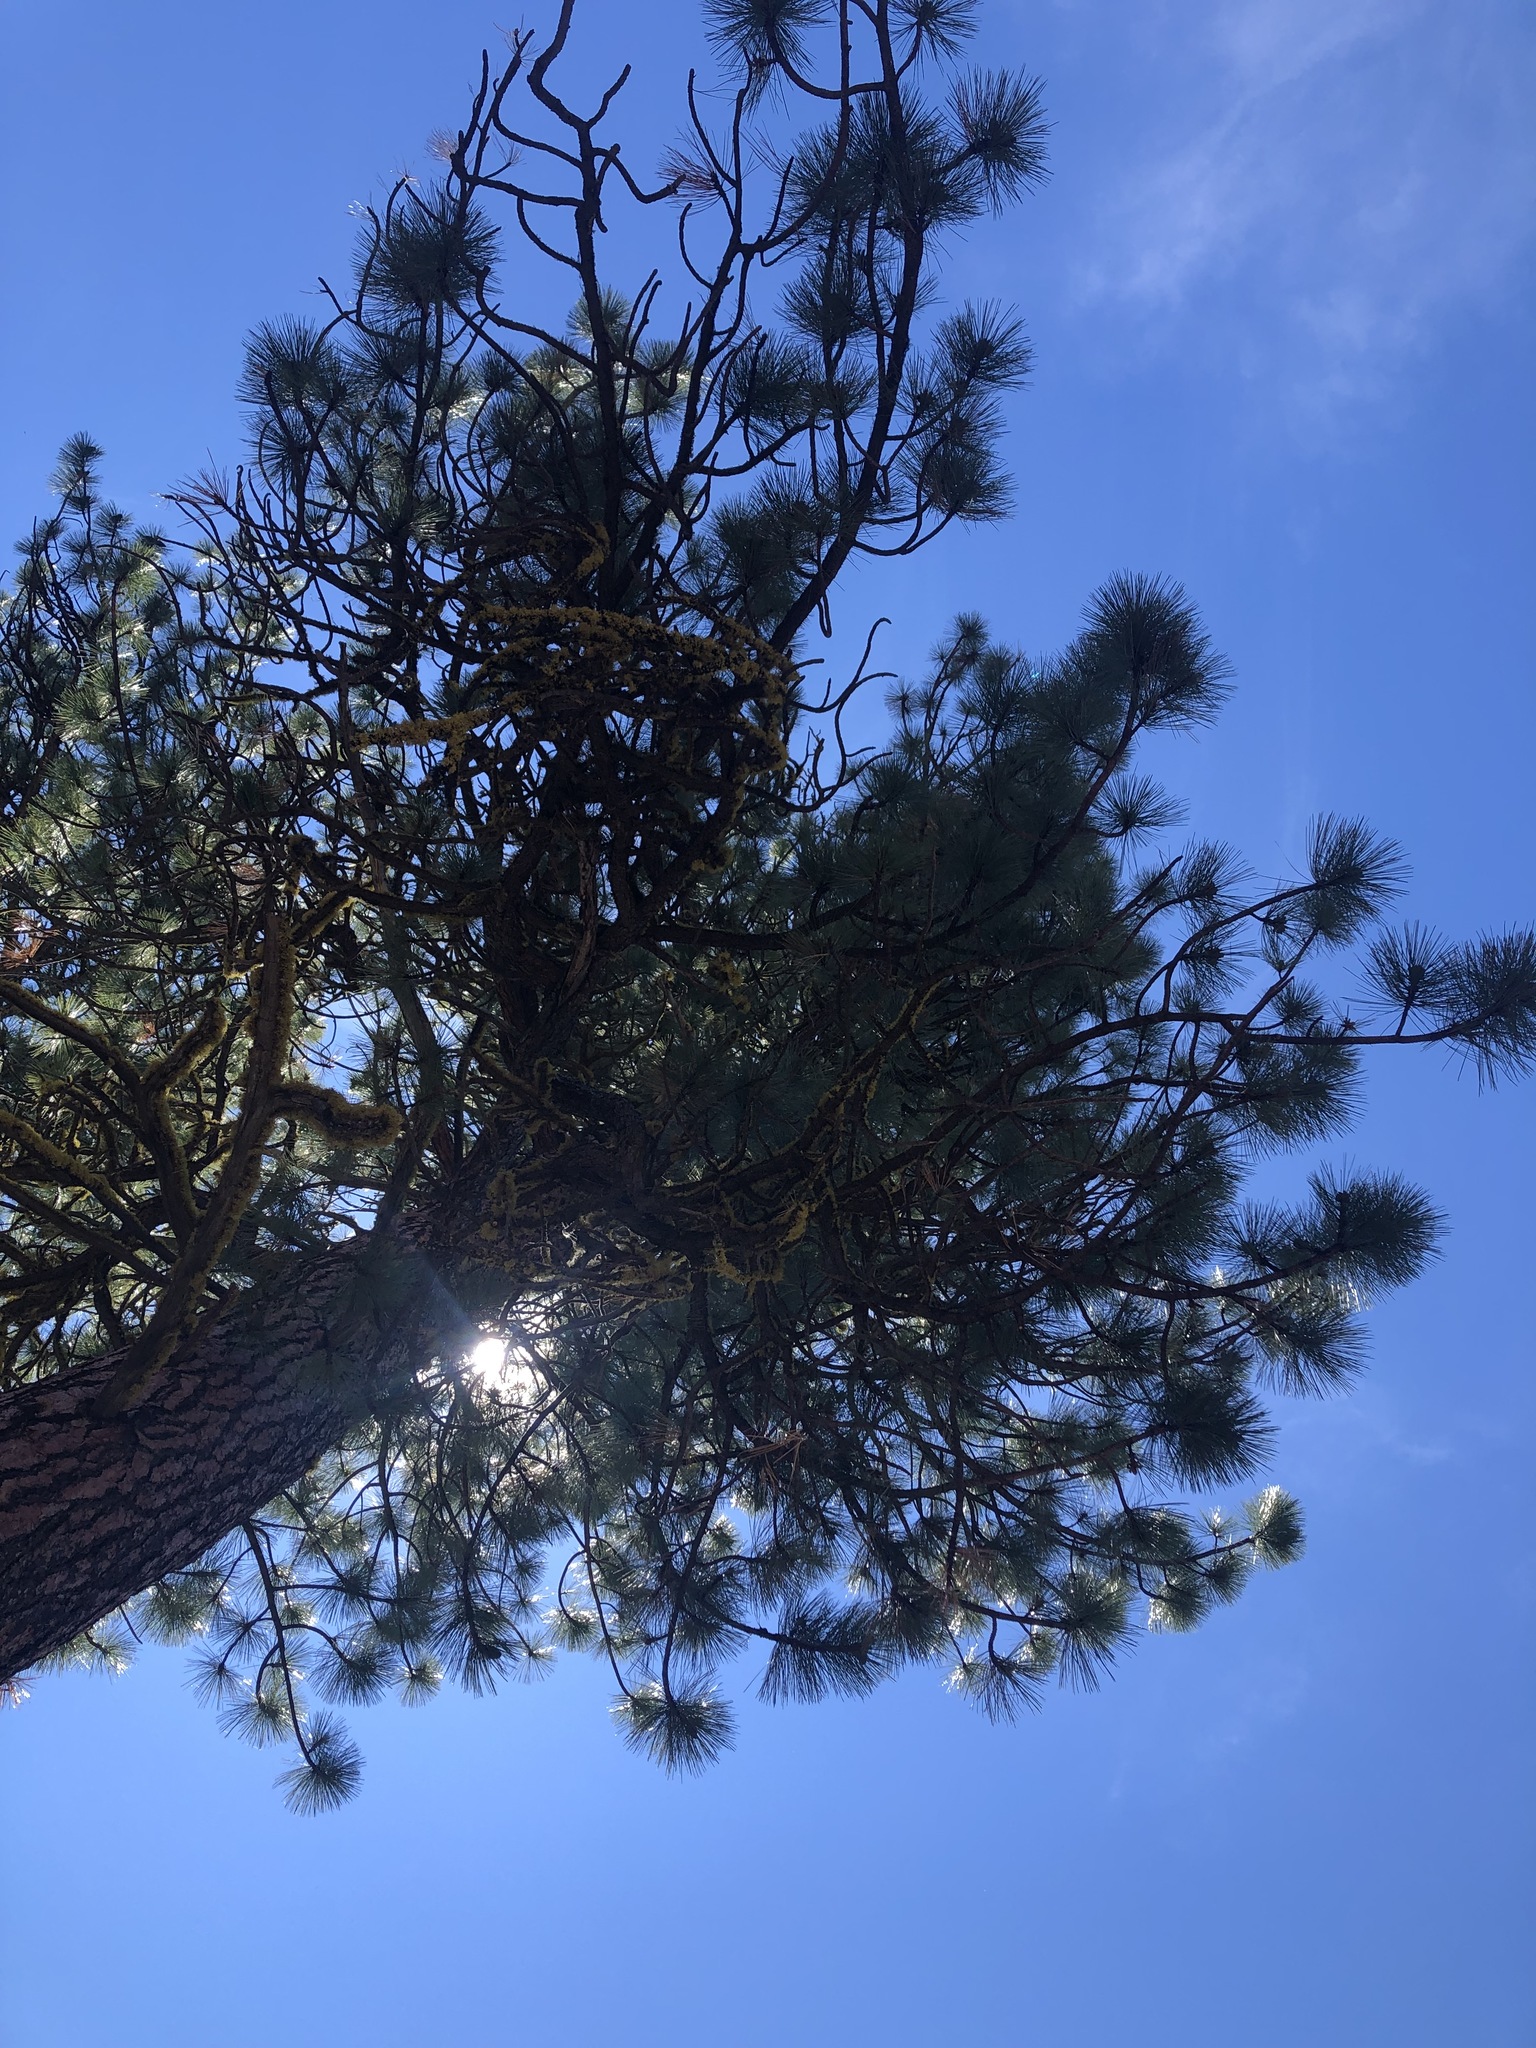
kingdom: Plantae
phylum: Tracheophyta
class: Pinopsida
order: Pinales
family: Pinaceae
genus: Pinus
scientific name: Pinus ponderosa
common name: Western yellow-pine
